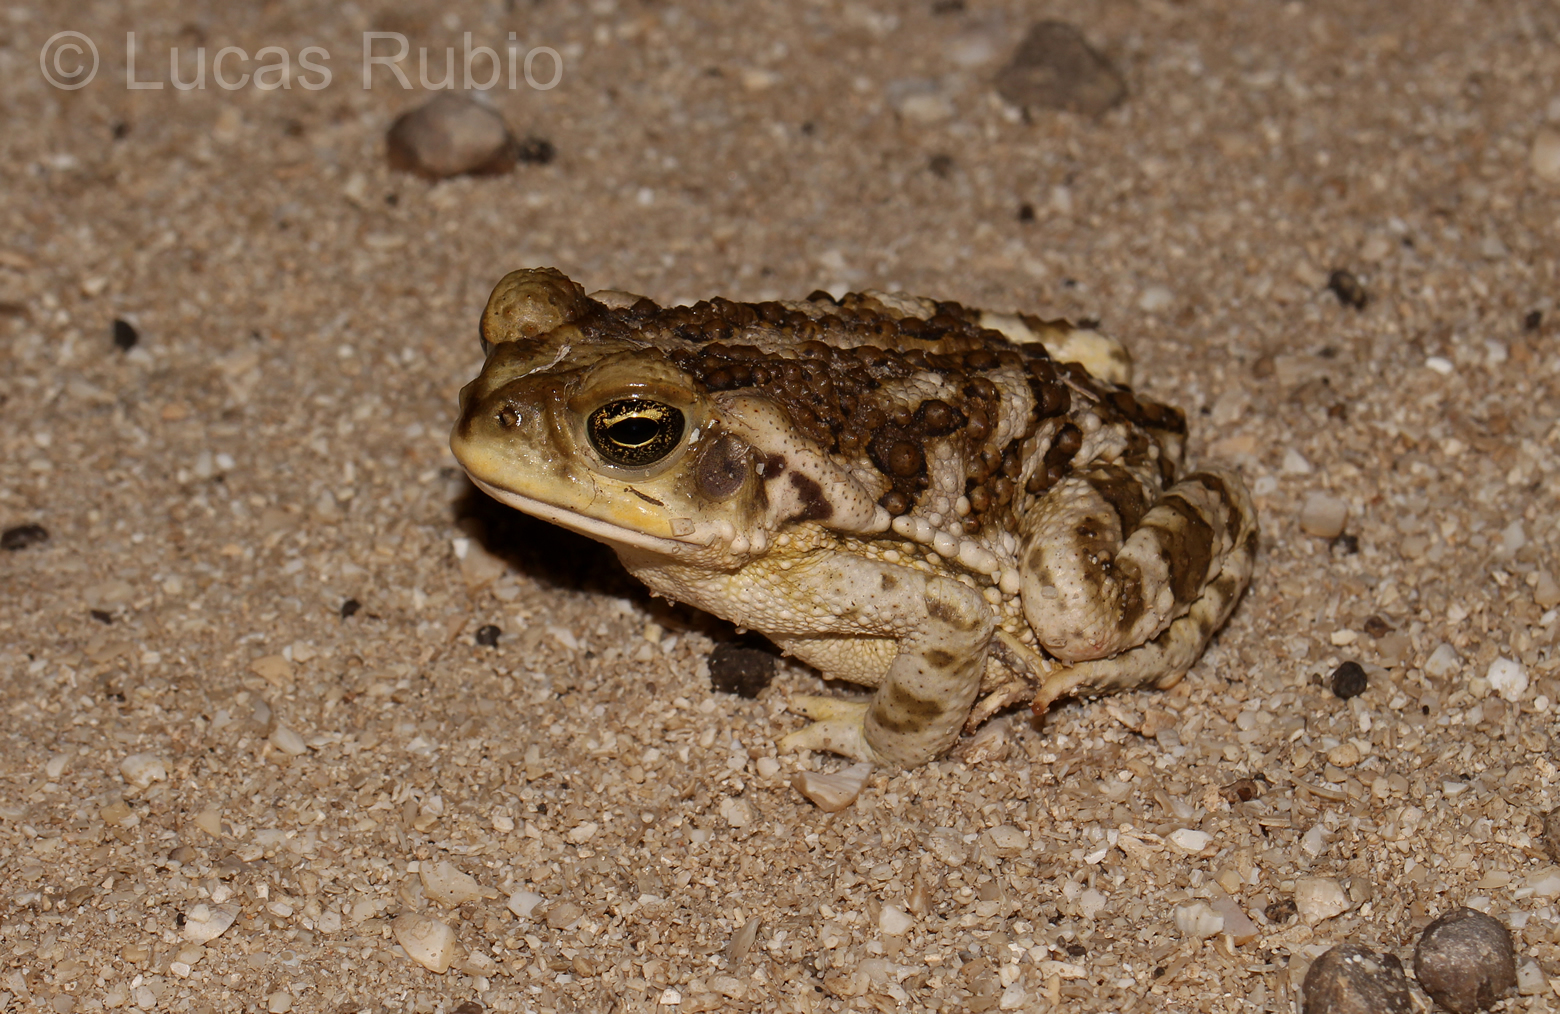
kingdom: Animalia
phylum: Chordata
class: Amphibia
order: Anura
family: Bufonidae
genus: Rhinella
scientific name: Rhinella arenarum
